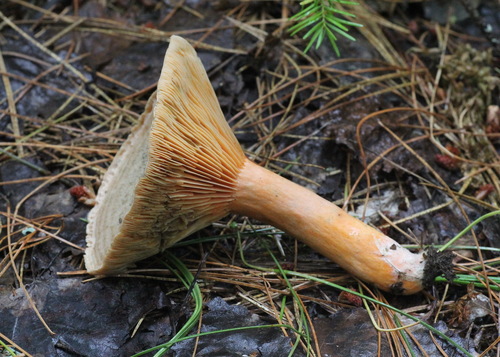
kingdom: Fungi
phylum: Basidiomycota
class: Agaricomycetes
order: Russulales
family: Russulaceae
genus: Lactarius
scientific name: Lactarius deterrimus
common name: False saffron milkcap
